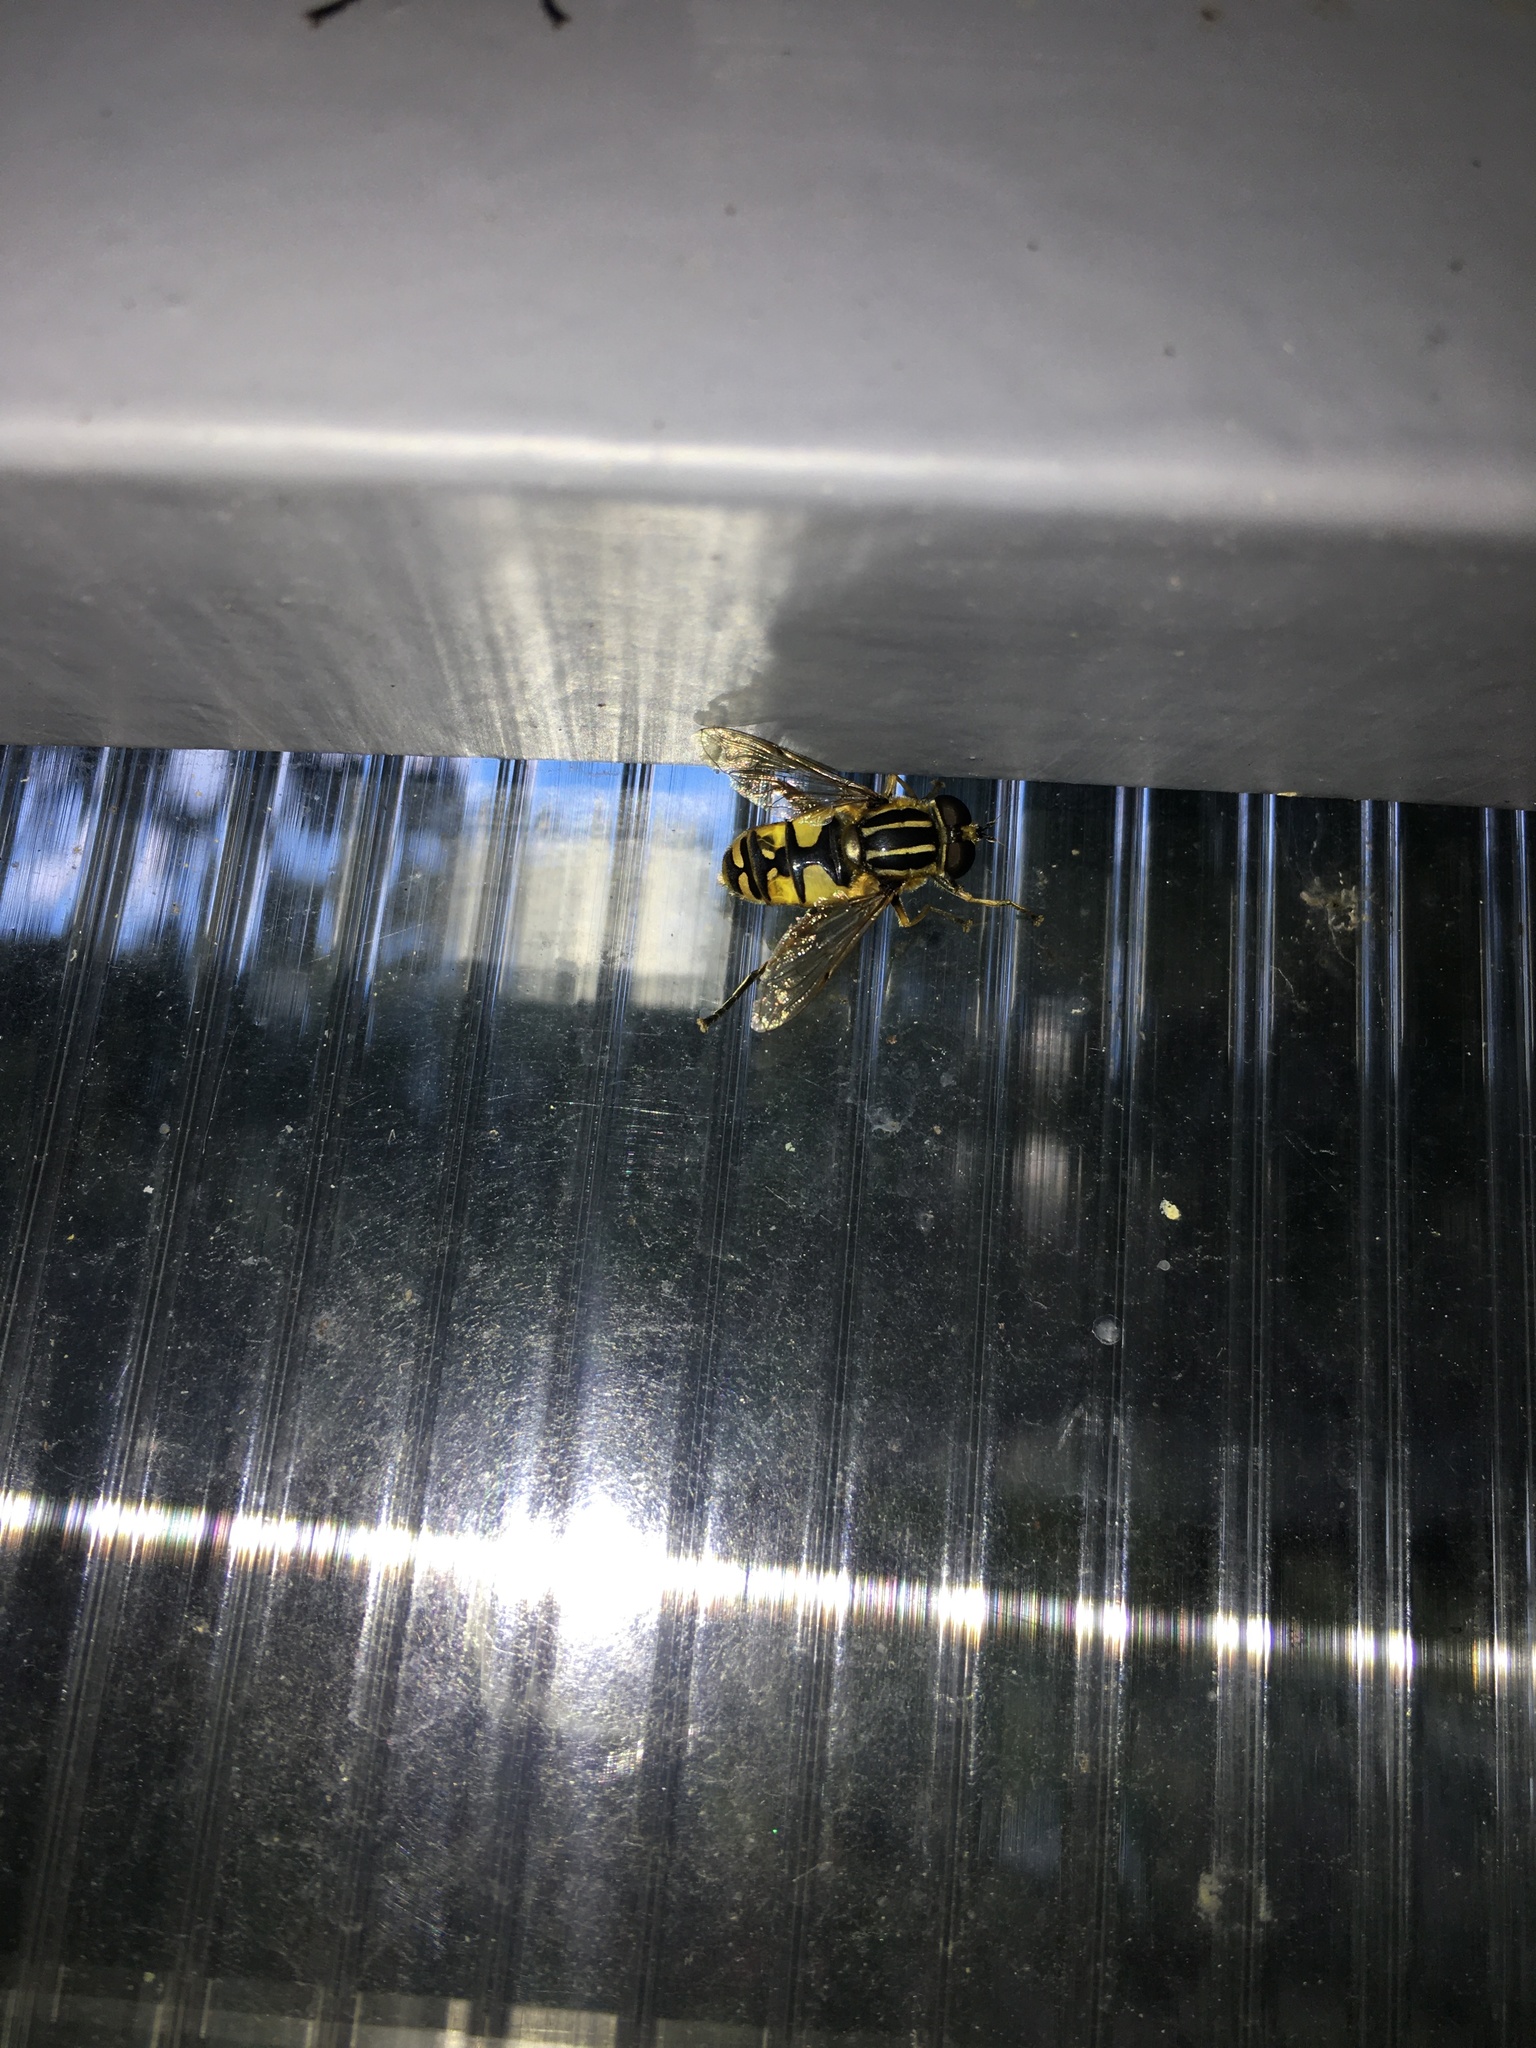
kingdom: Animalia
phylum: Arthropoda
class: Insecta
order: Diptera
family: Syrphidae
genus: Helophilus
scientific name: Helophilus pendulus
